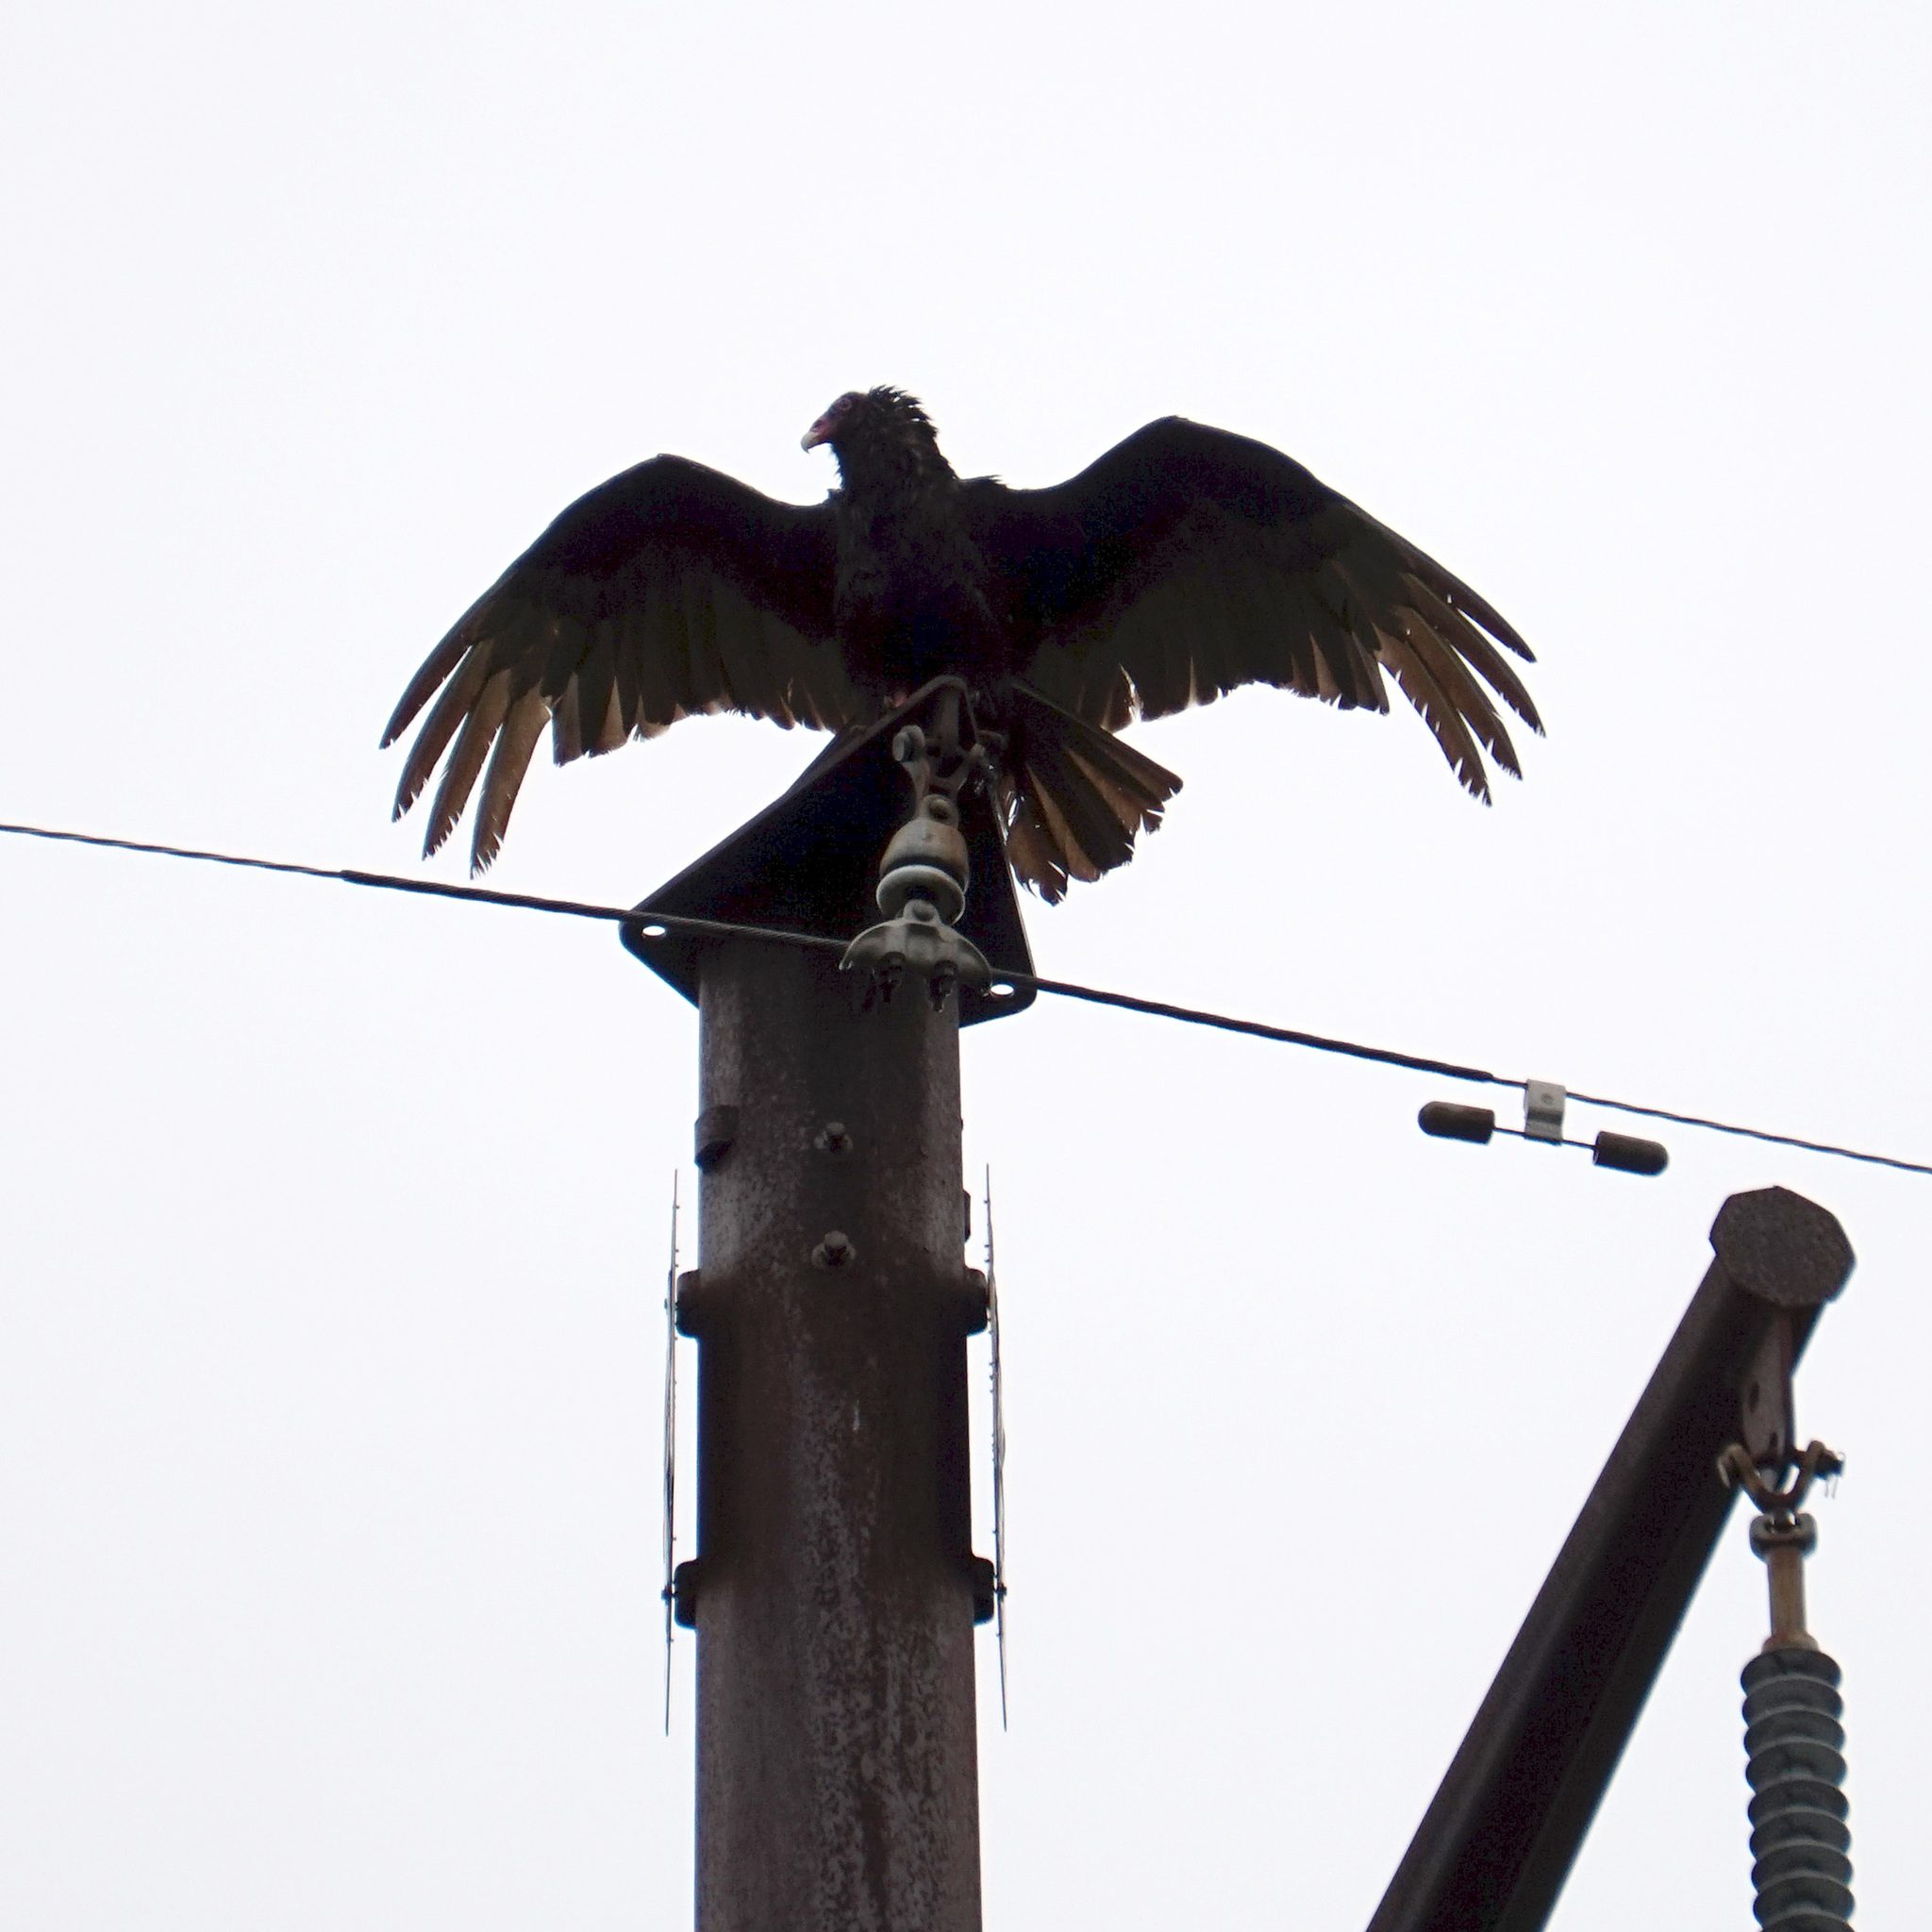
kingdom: Animalia
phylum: Chordata
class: Aves
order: Accipitriformes
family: Cathartidae
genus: Cathartes
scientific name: Cathartes aura
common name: Turkey vulture
